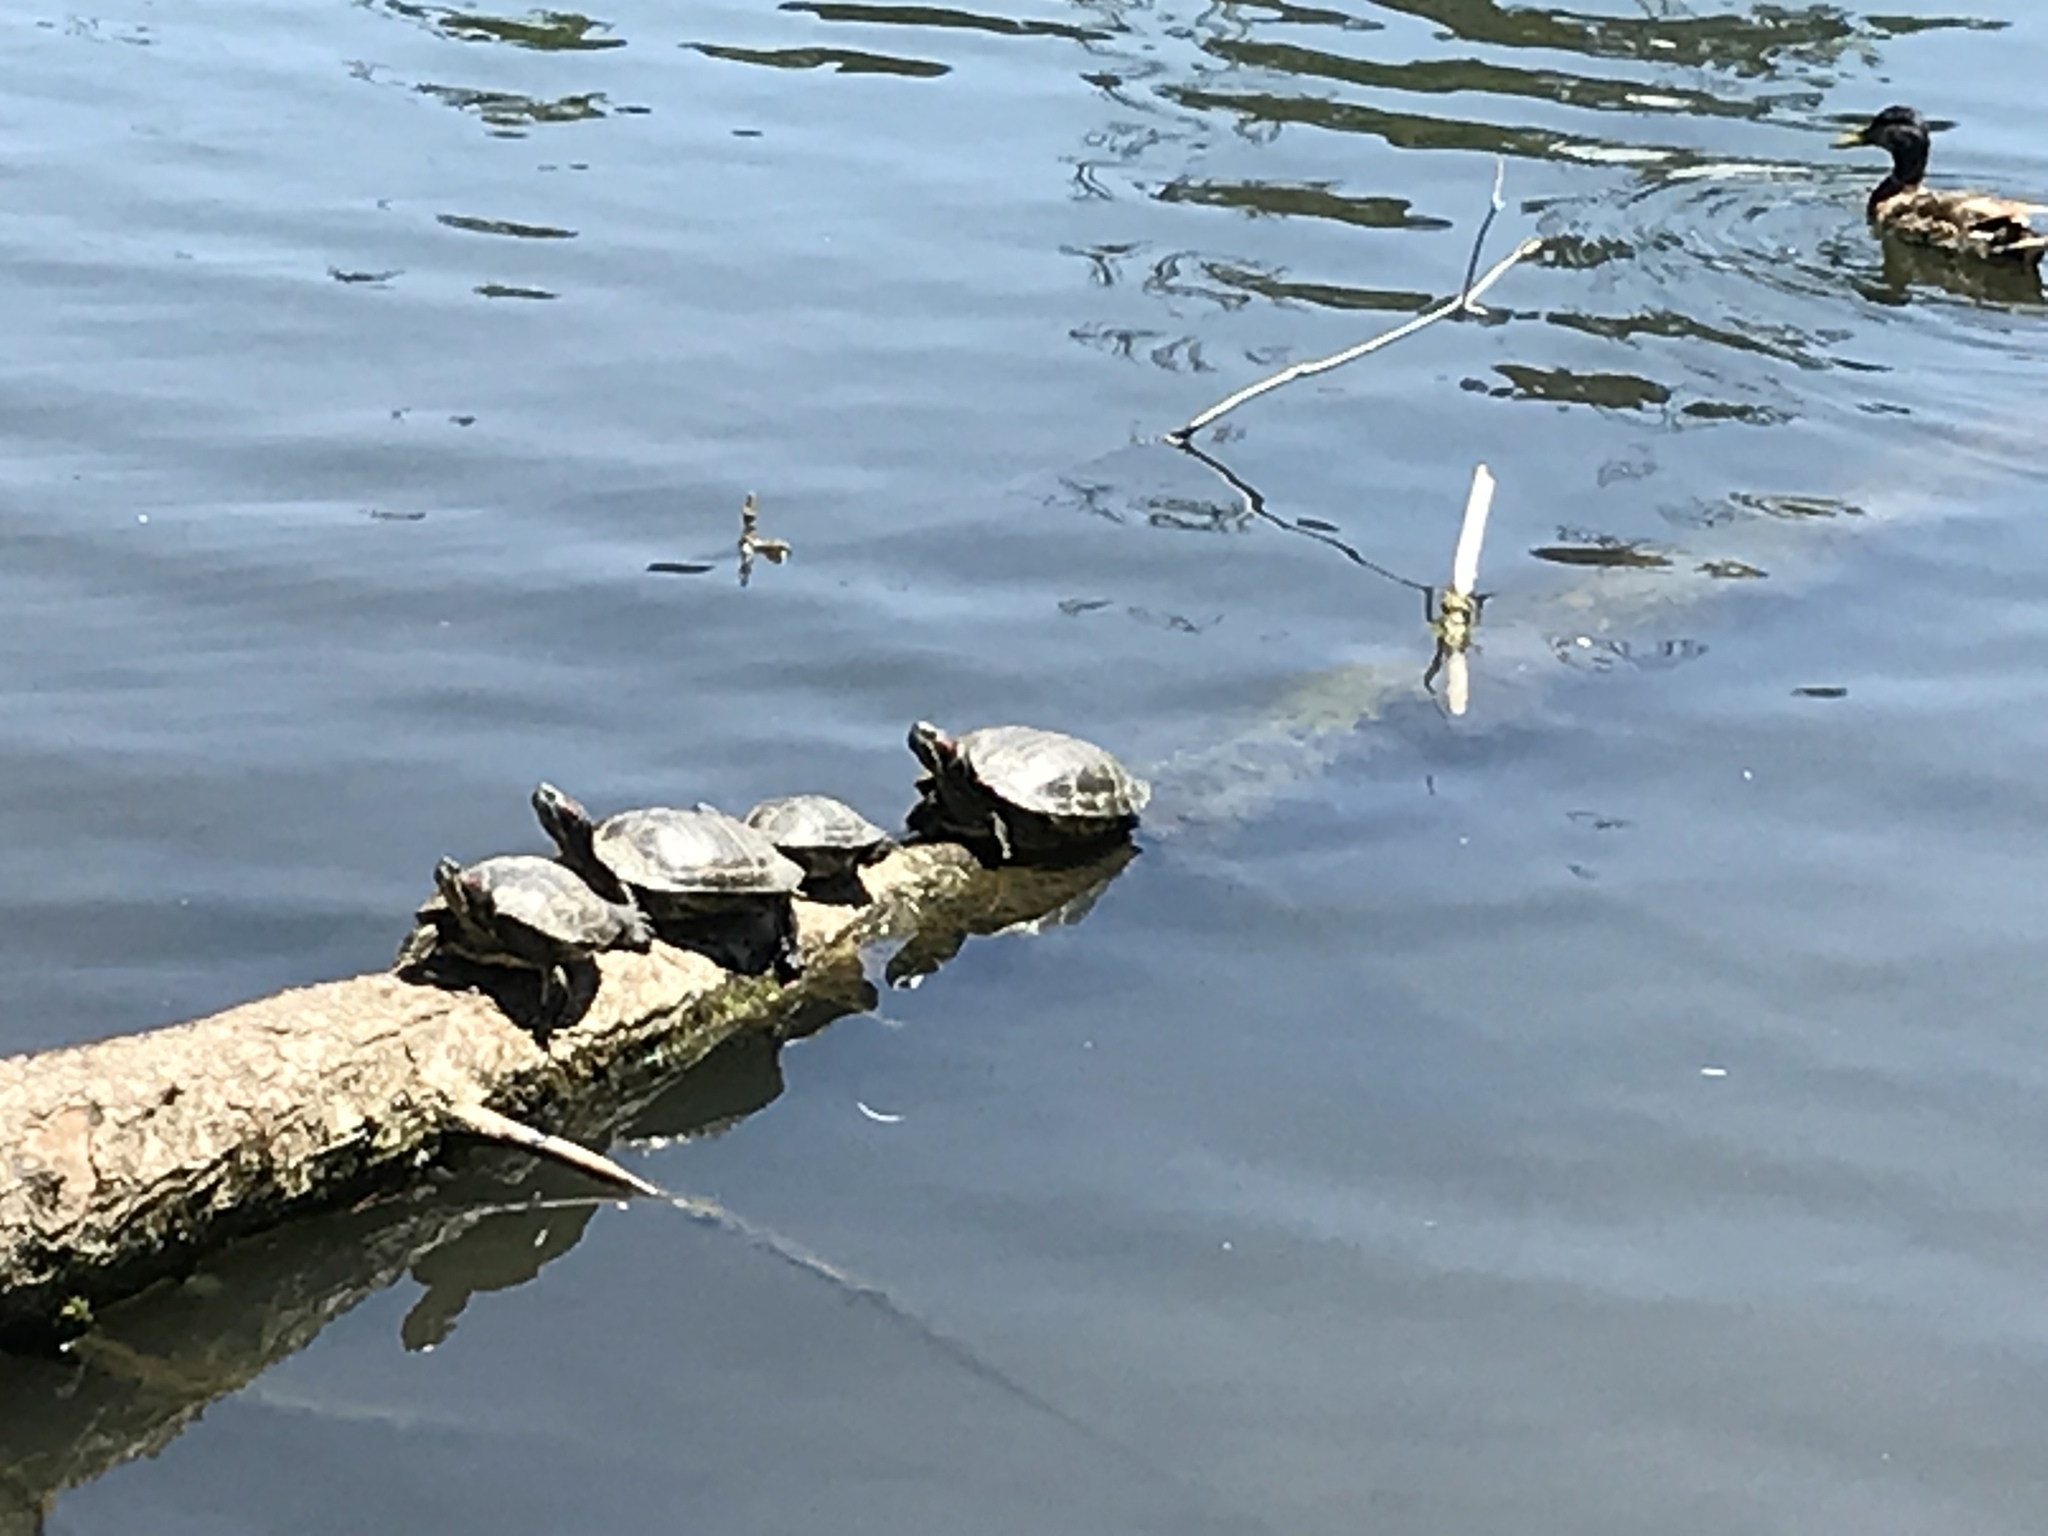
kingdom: Animalia
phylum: Chordata
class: Testudines
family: Emydidae
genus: Trachemys
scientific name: Trachemys scripta
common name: Slider
